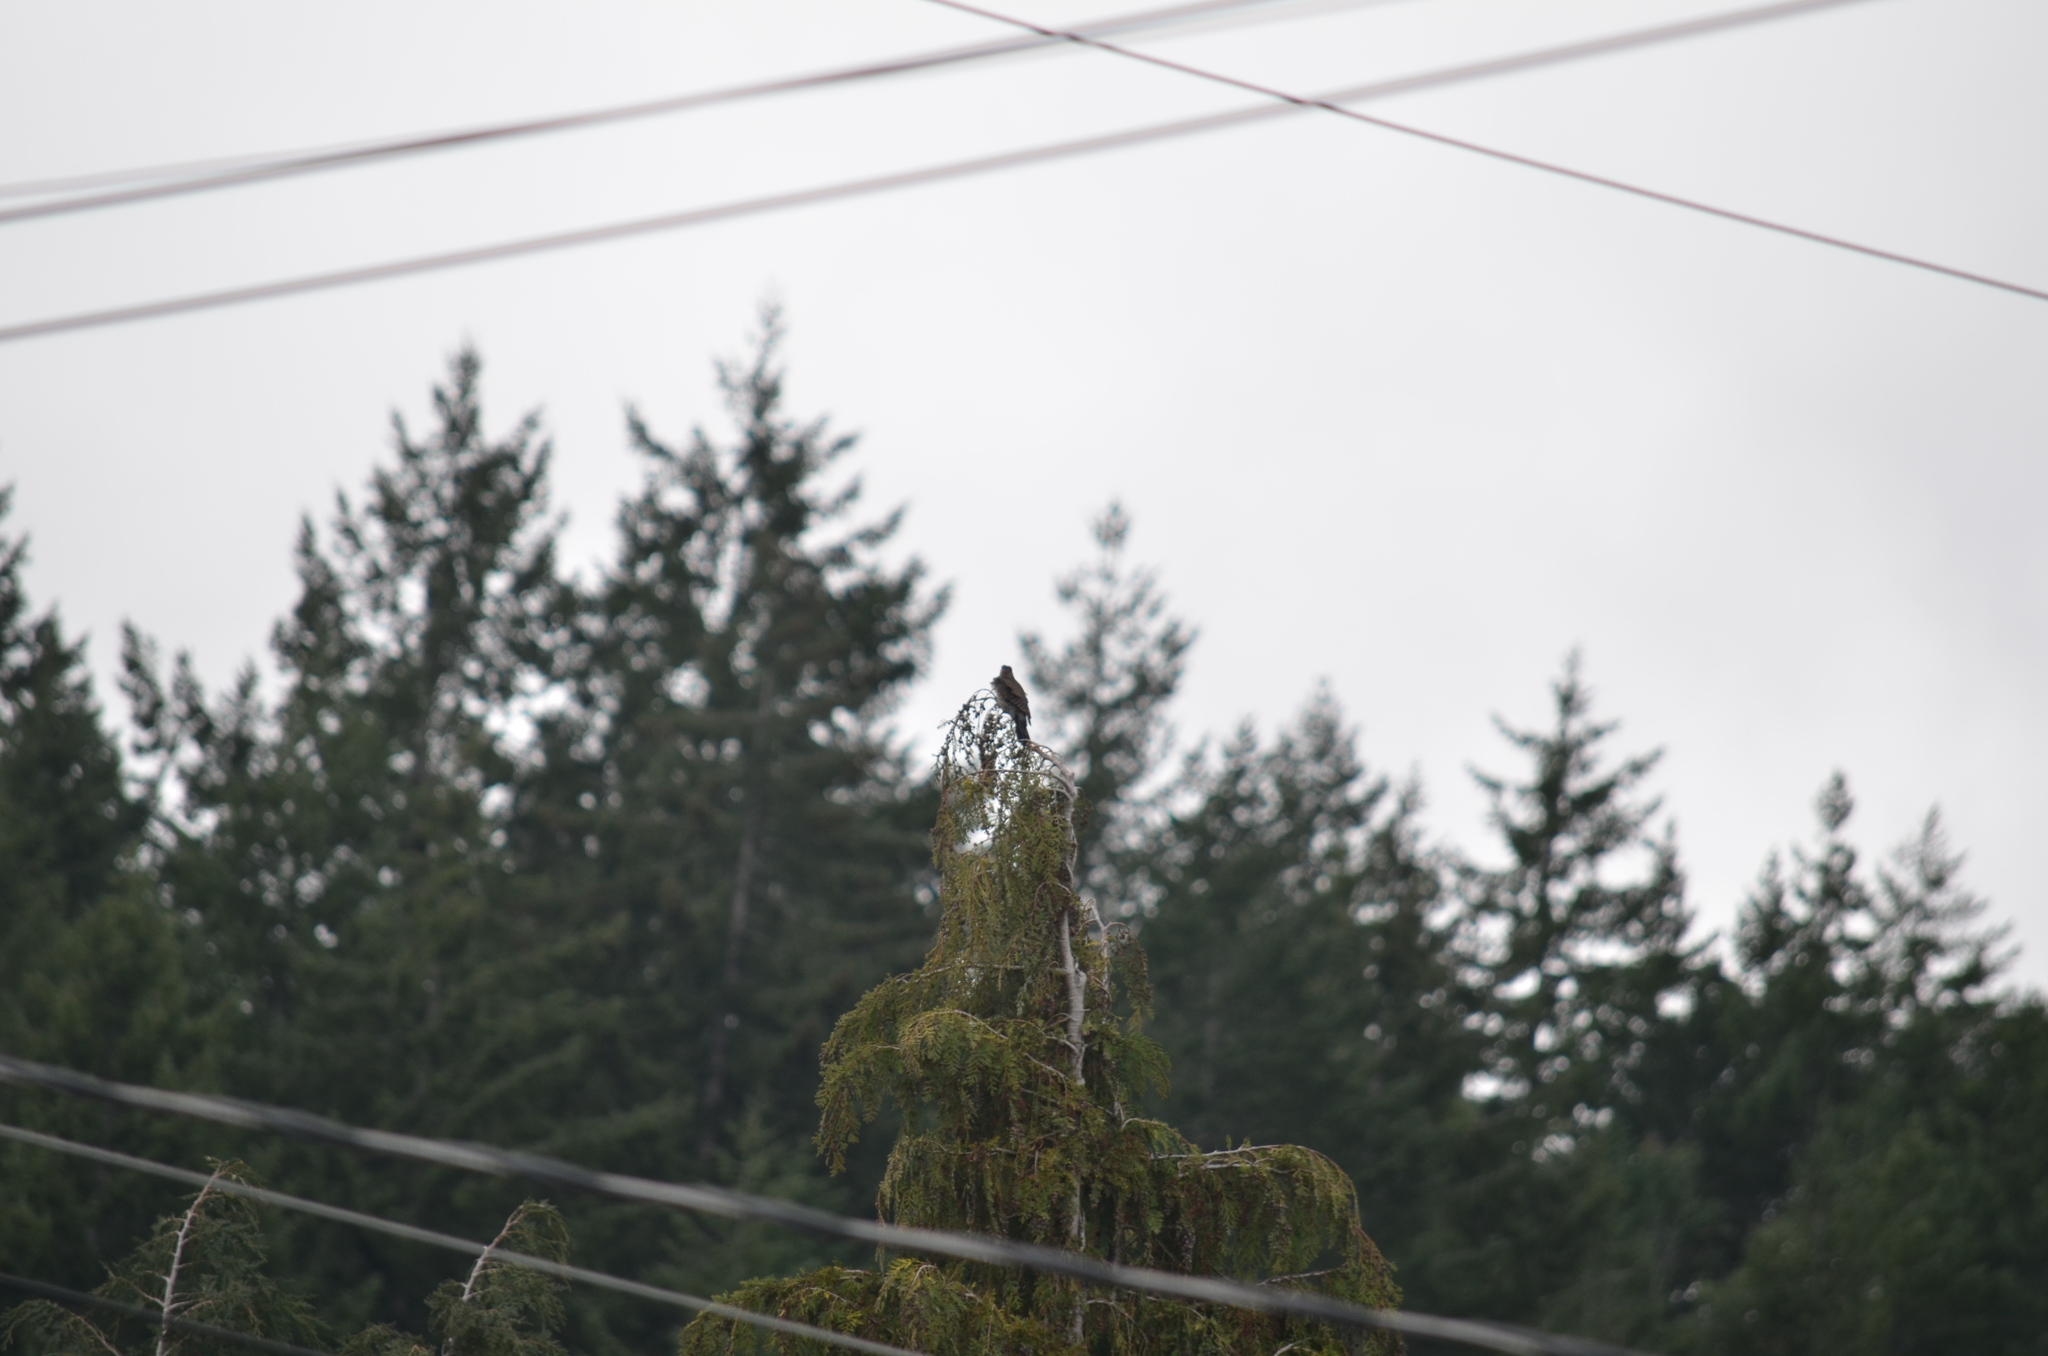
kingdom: Animalia
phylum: Chordata
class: Aves
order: Piciformes
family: Picidae
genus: Colaptes
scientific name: Colaptes auratus
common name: Northern flicker
